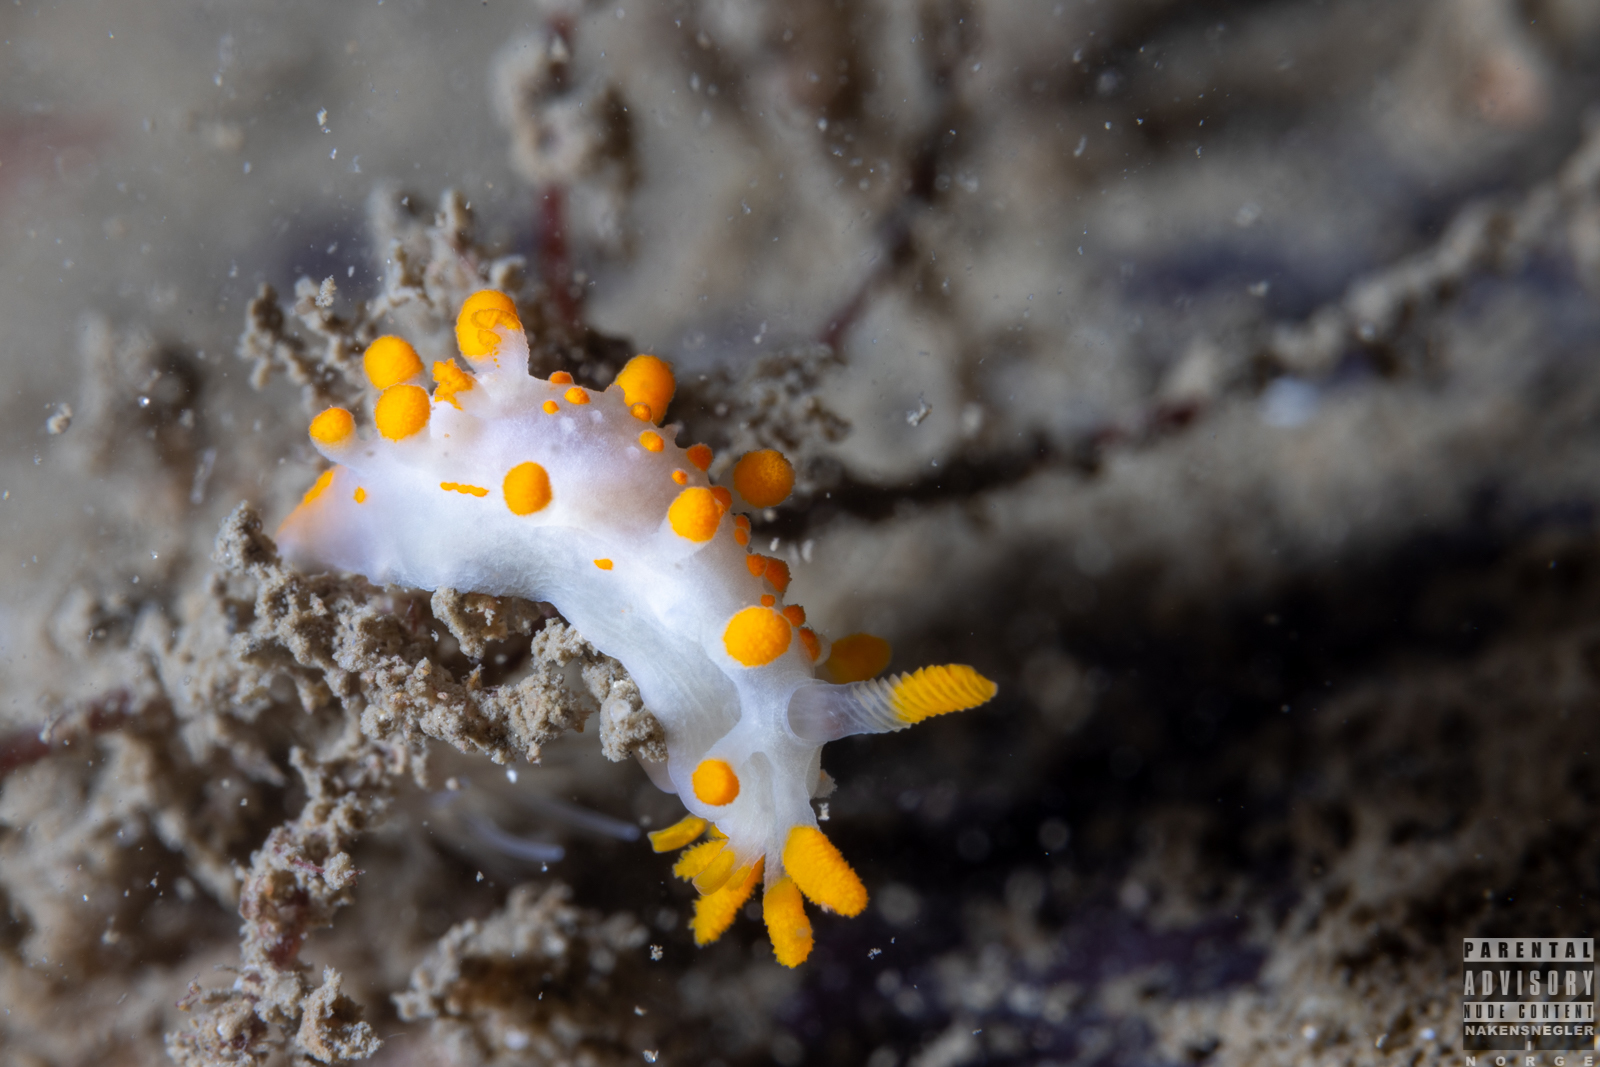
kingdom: Animalia
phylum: Mollusca
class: Gastropoda
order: Nudibranchia
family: Polyceridae
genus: Limacia
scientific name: Limacia clavigera
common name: Orange-clubbed sea slug
